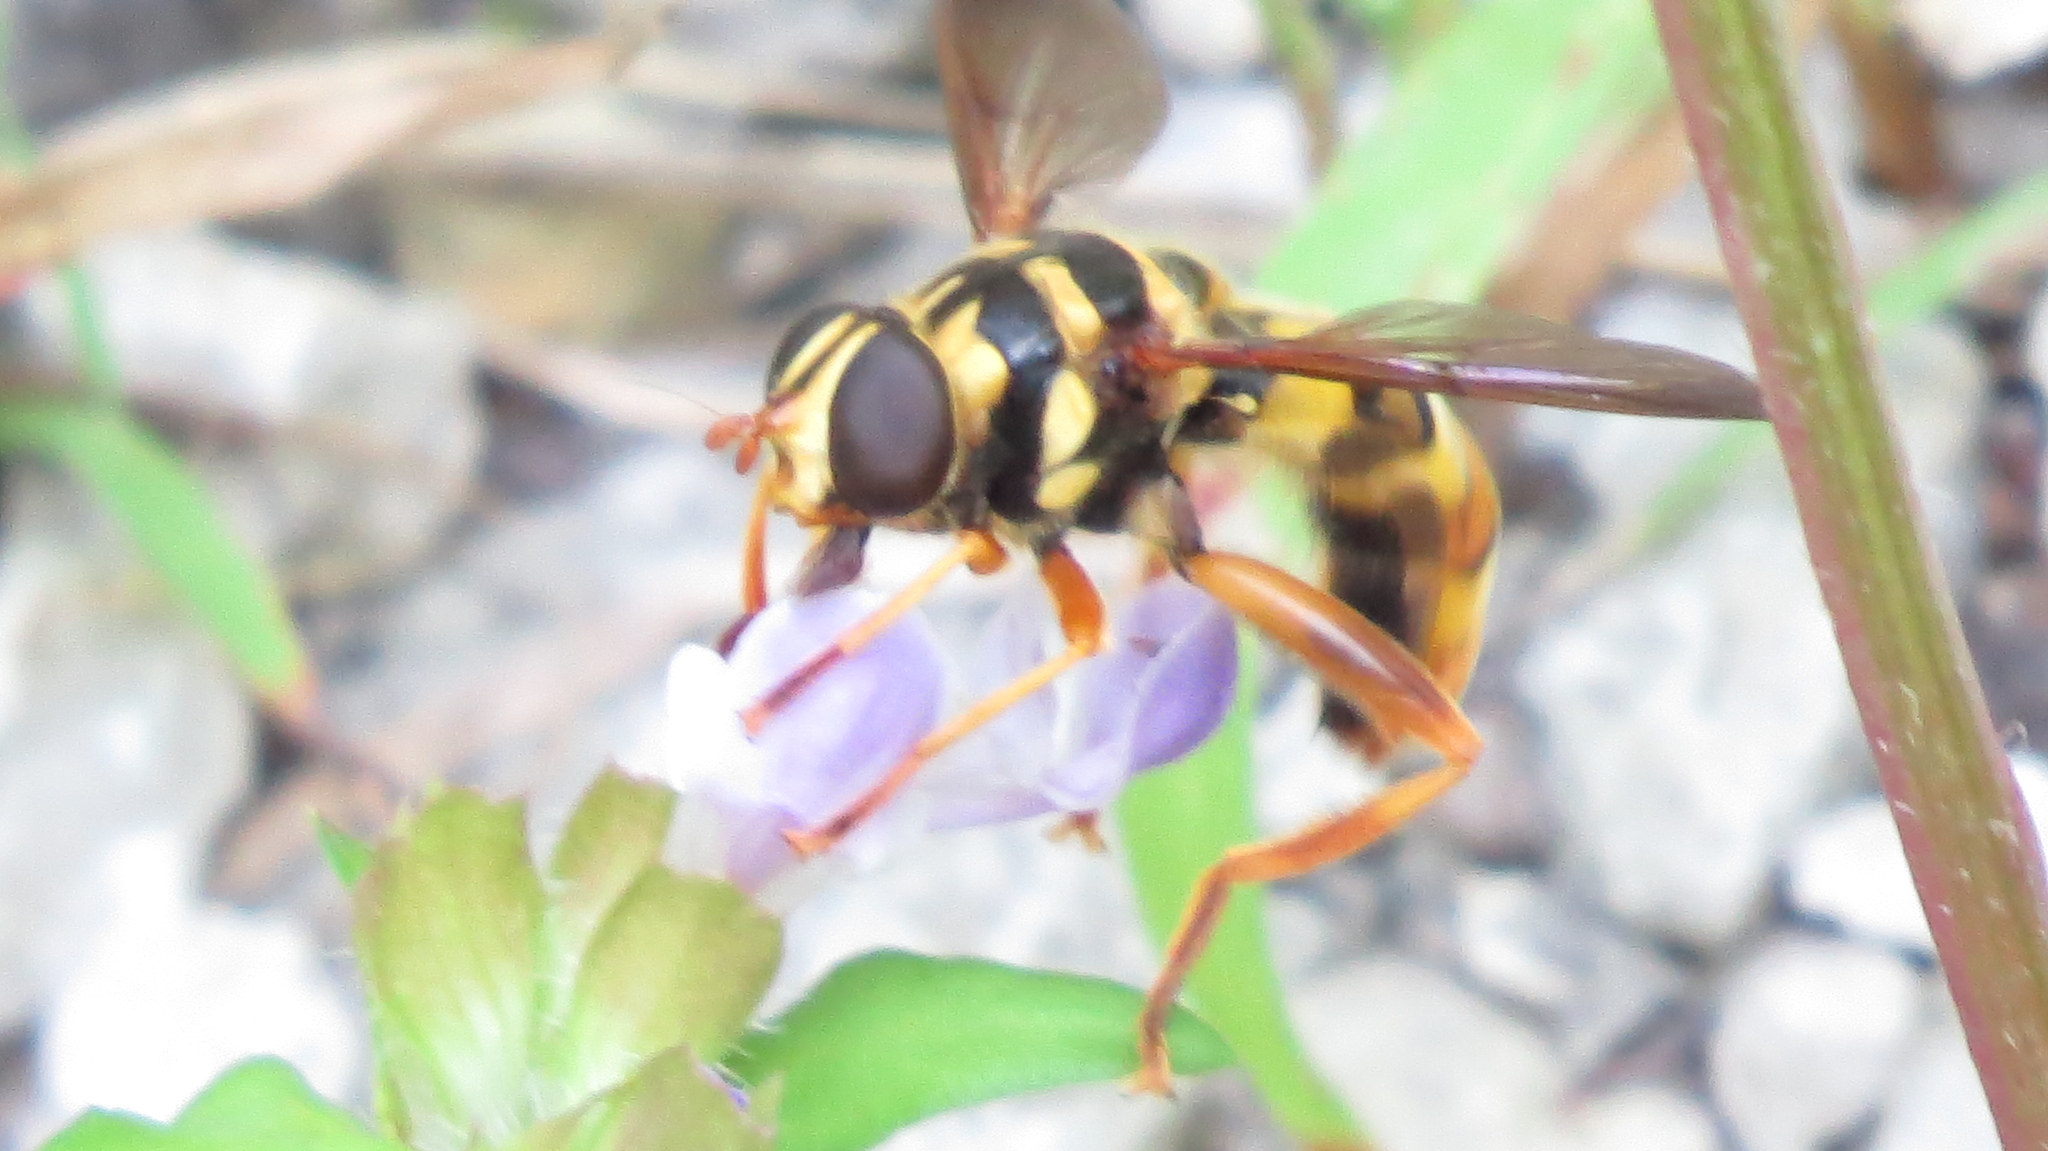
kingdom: Animalia
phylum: Arthropoda
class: Insecta
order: Diptera
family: Syrphidae
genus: Milesia
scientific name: Milesia virginiensis
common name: Virginia giant
